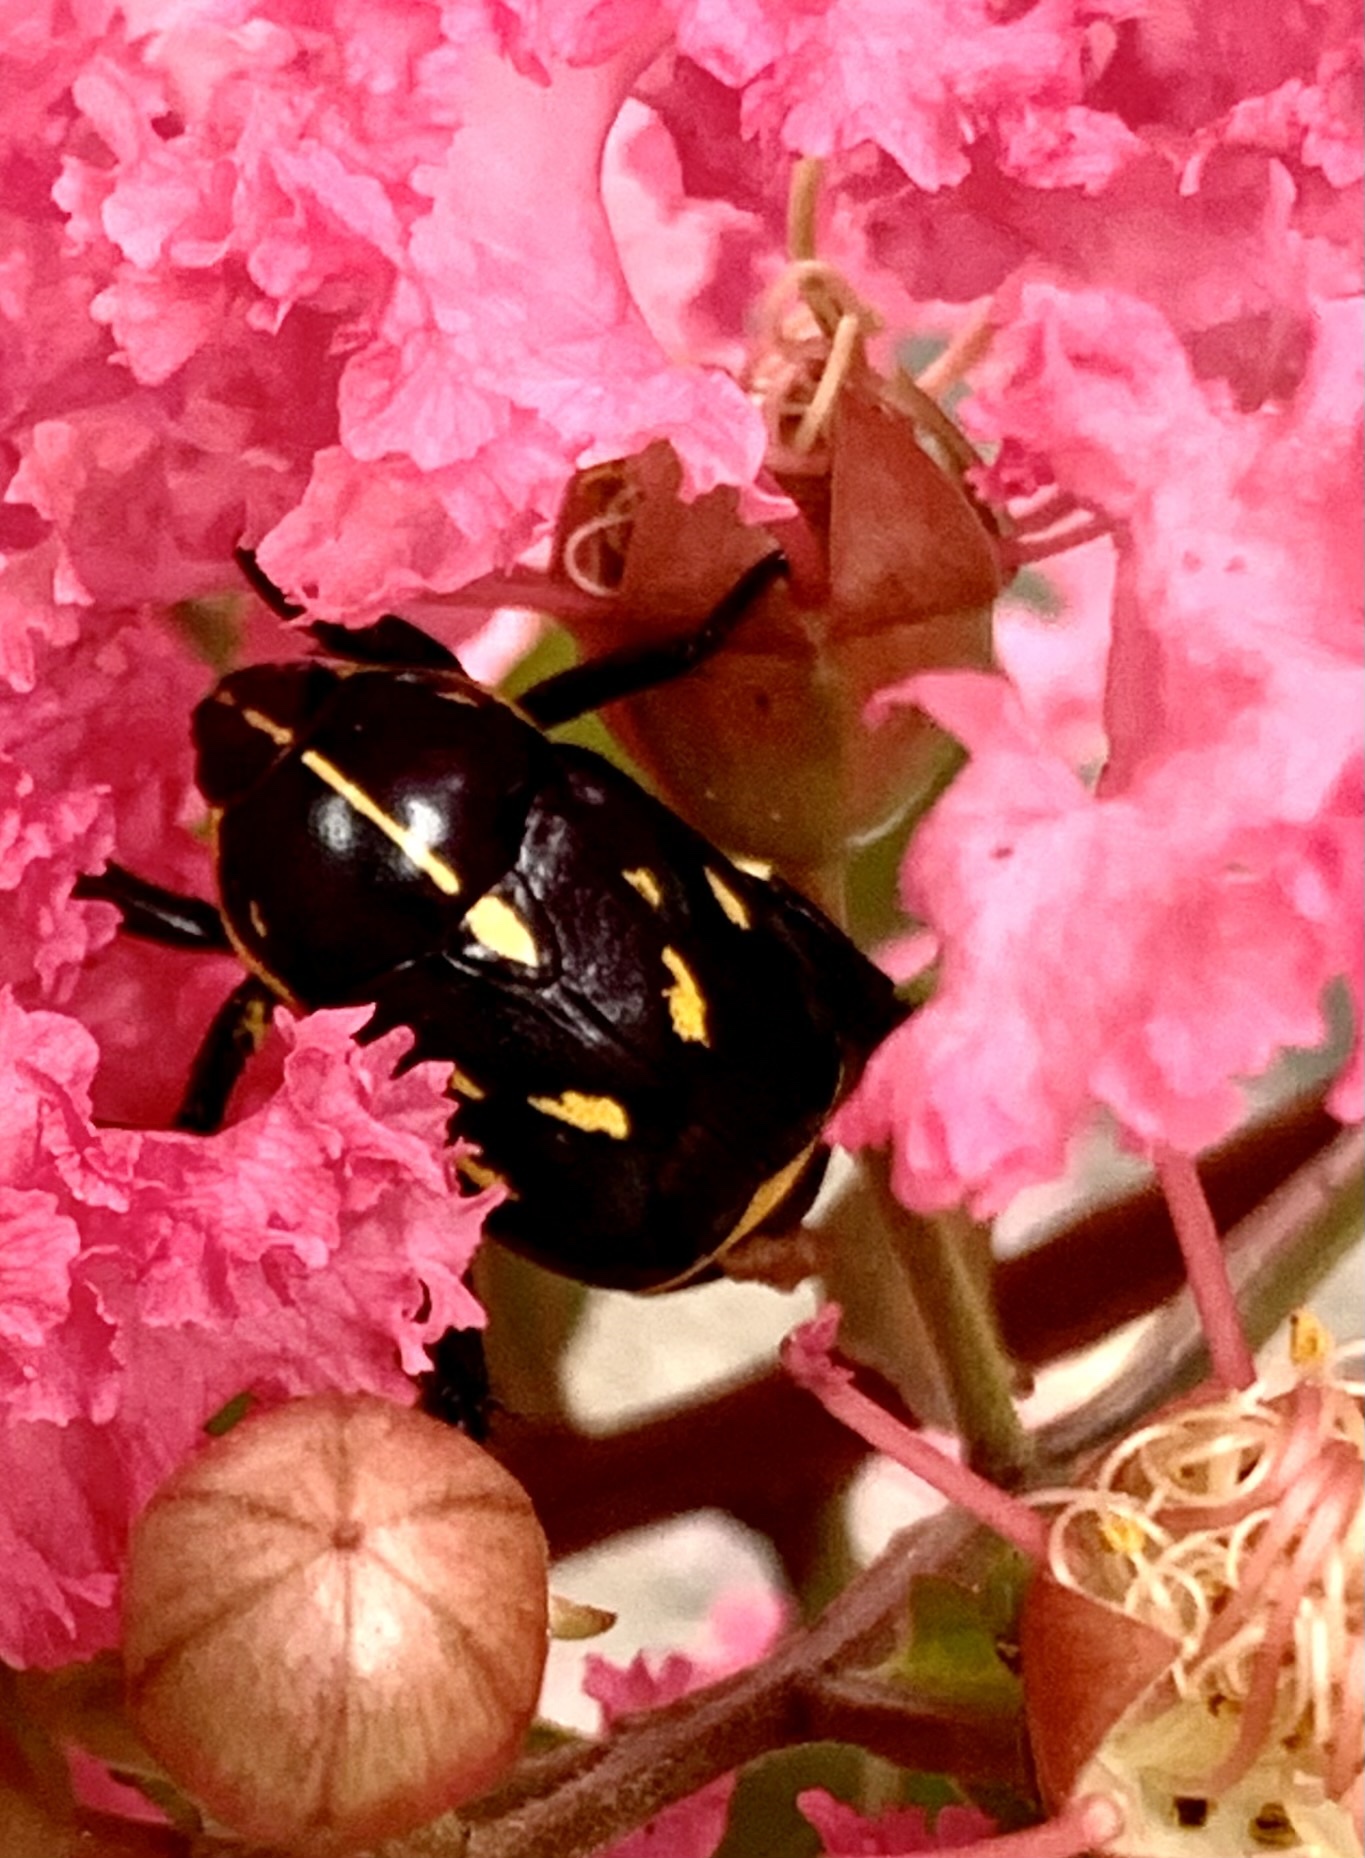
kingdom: Animalia
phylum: Arthropoda
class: Insecta
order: Coleoptera
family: Scarabaeidae
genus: Rutela
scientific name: Rutela lineola
